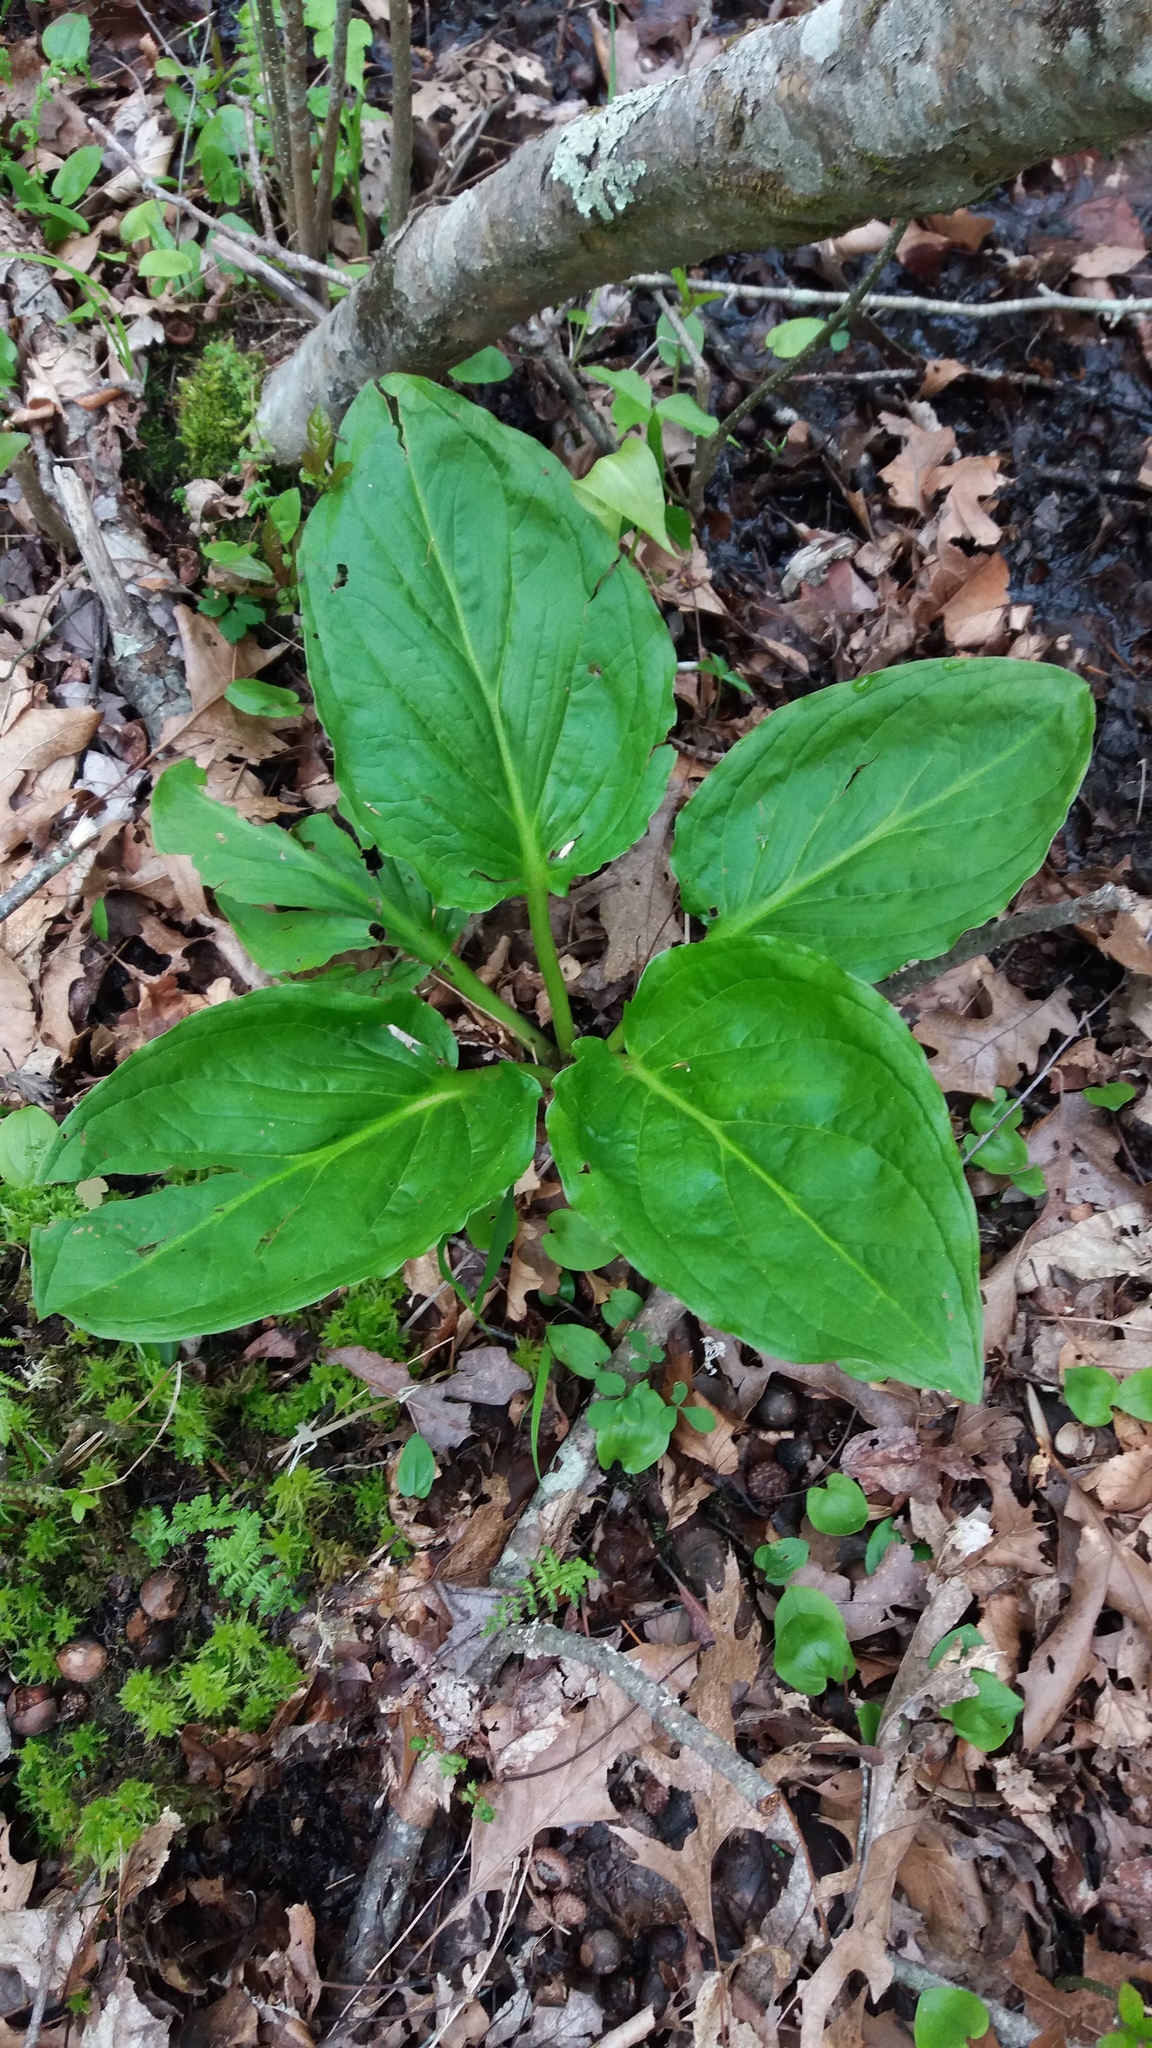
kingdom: Plantae
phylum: Tracheophyta
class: Liliopsida
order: Alismatales
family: Araceae
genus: Symplocarpus
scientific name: Symplocarpus foetidus
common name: Eastern skunk cabbage
